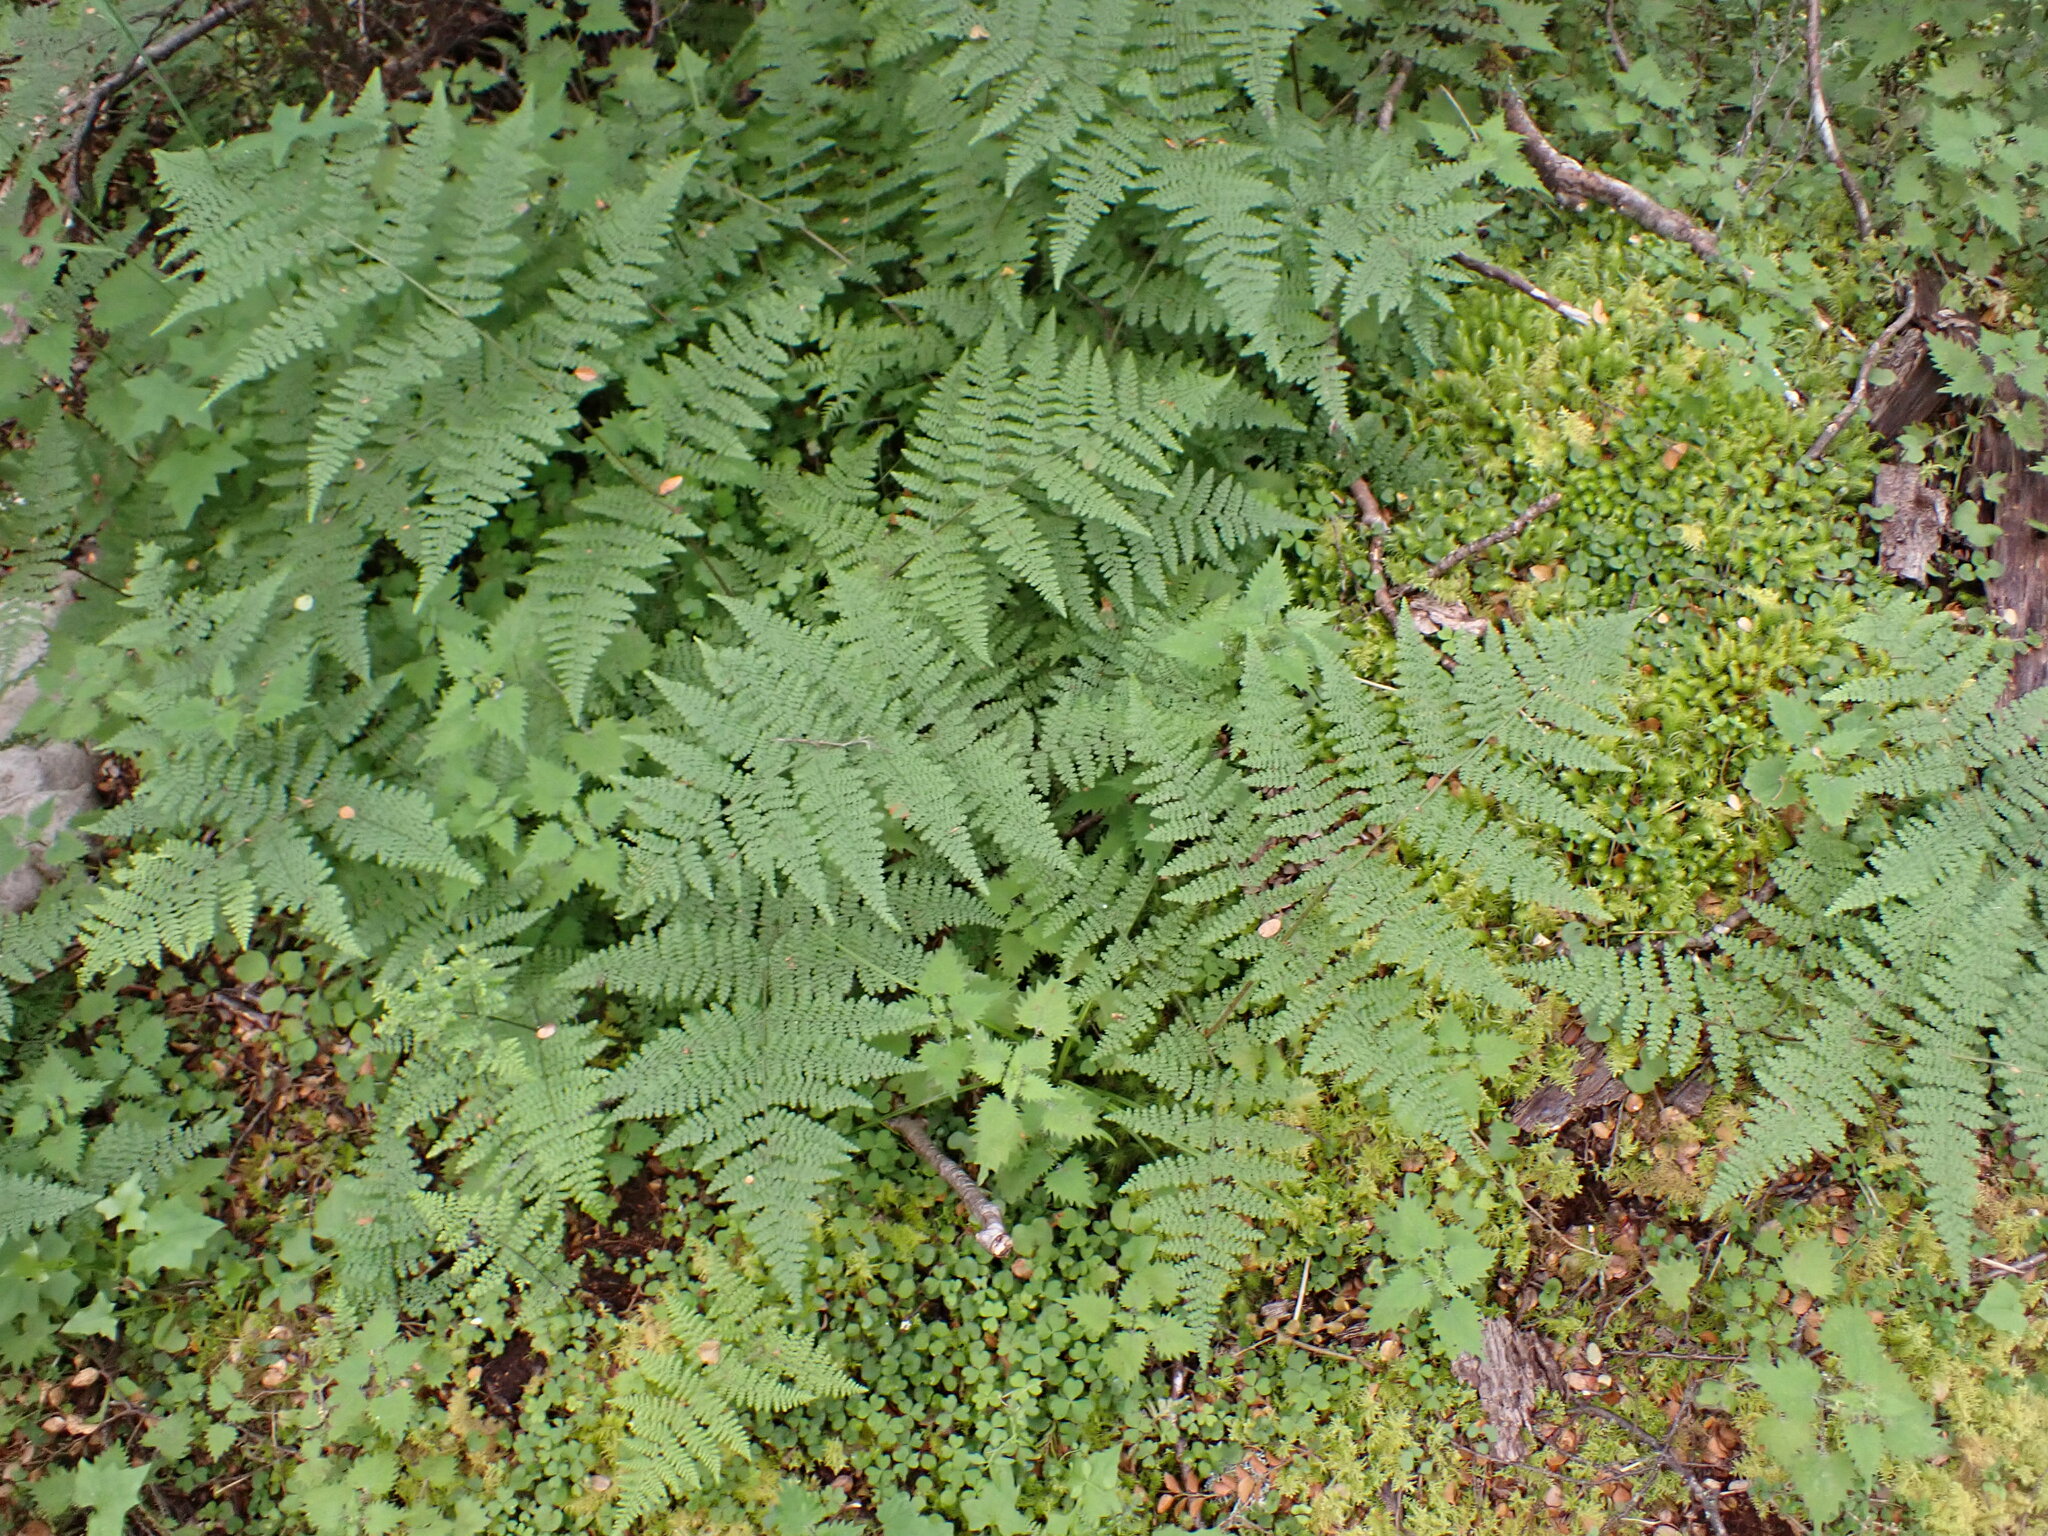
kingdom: Plantae
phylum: Tracheophyta
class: Polypodiopsida
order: Polypodiales
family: Dennstaedtiaceae
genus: Hypolepis
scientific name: Hypolepis millefolium
